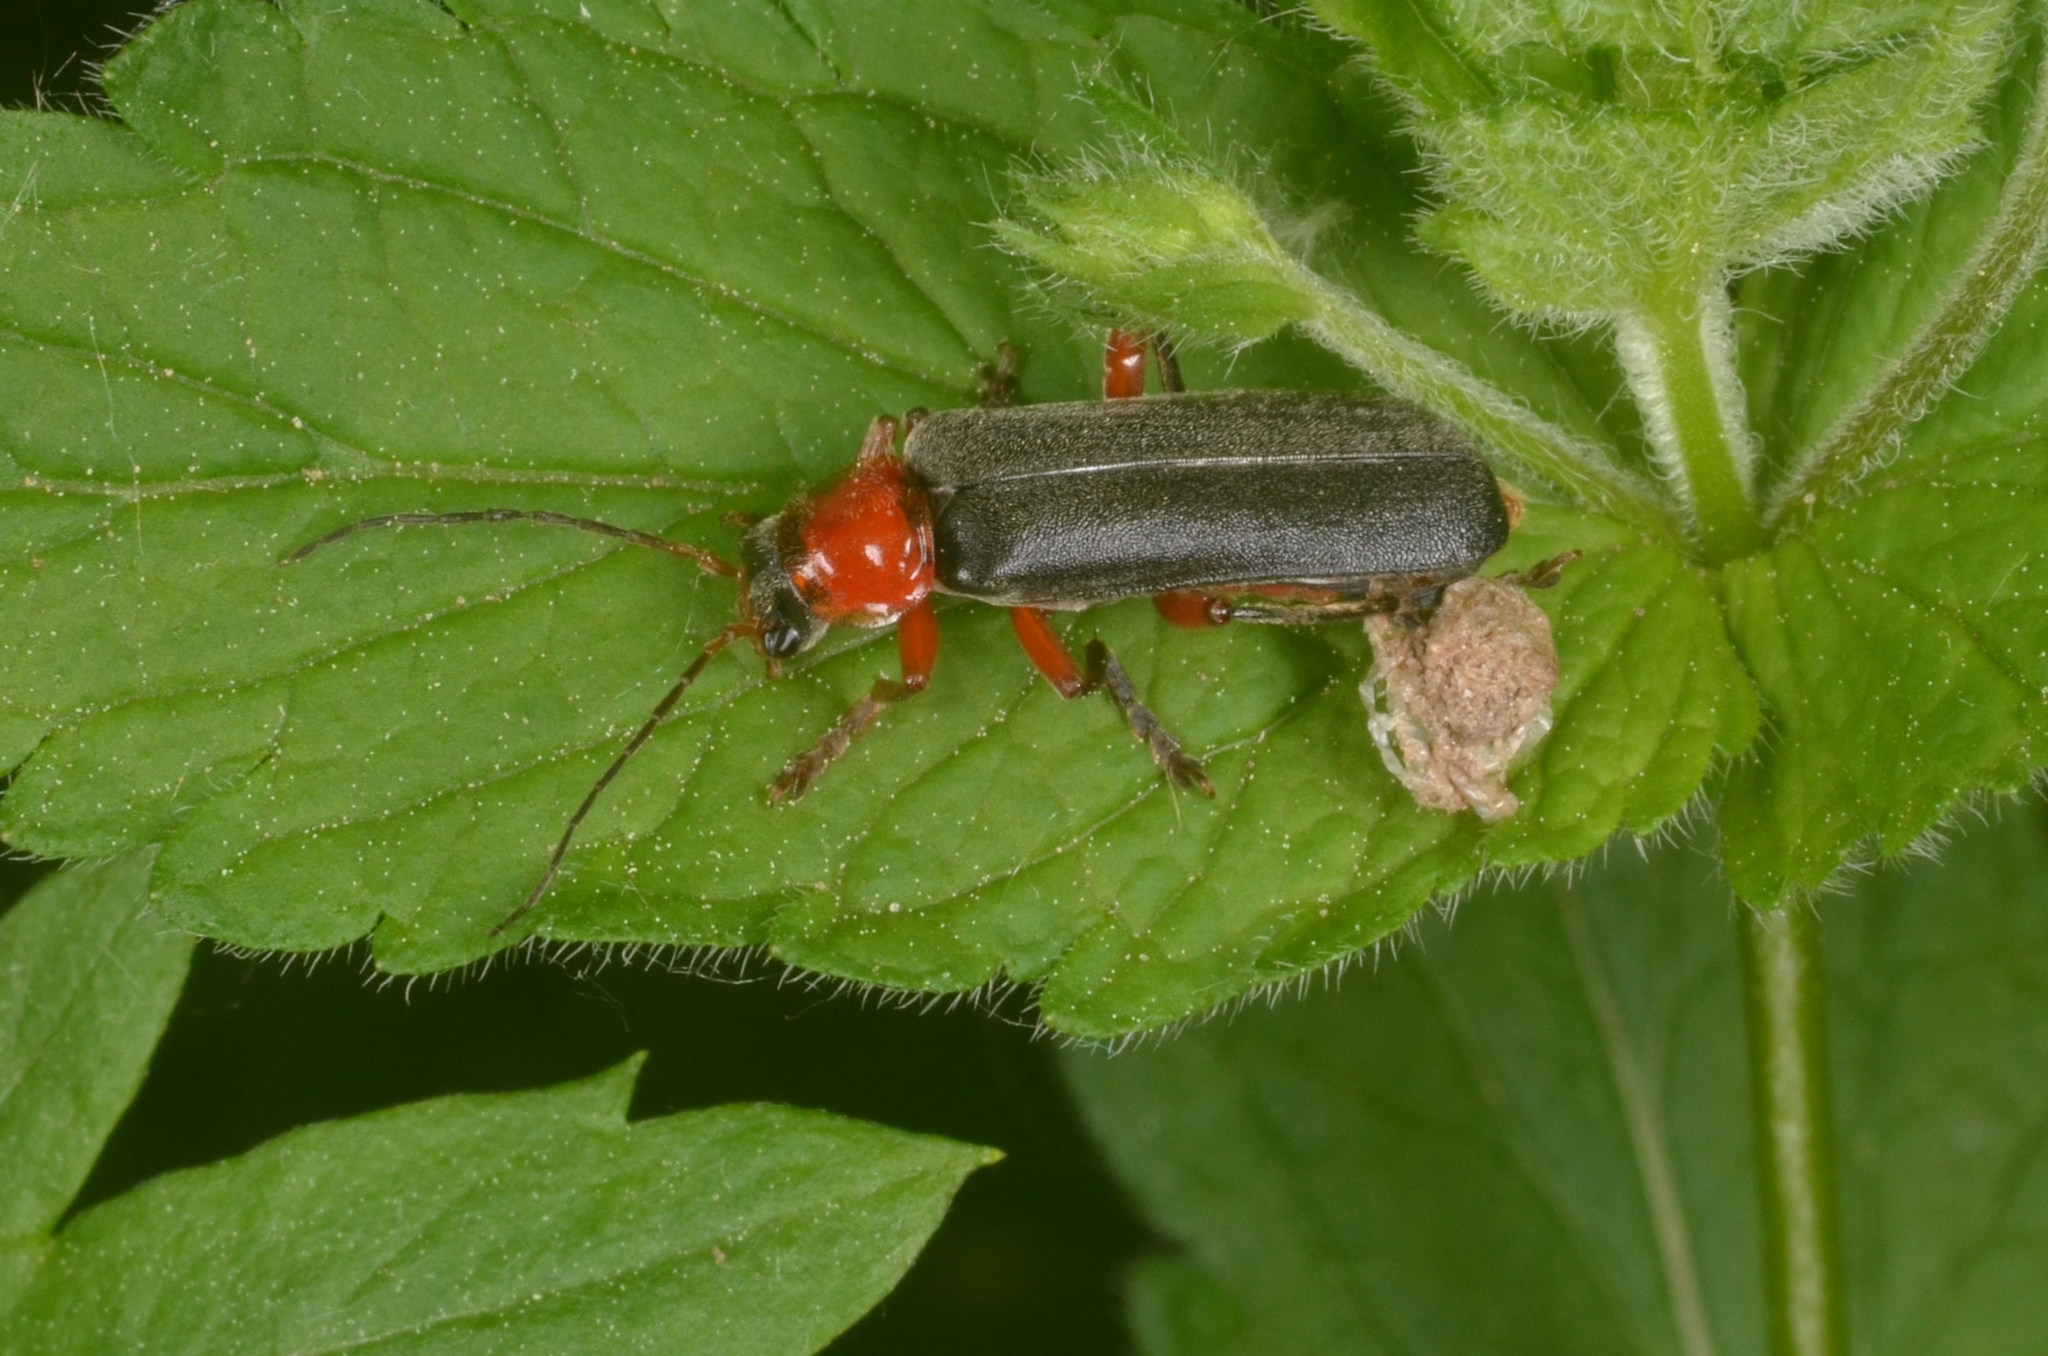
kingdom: Animalia
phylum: Arthropoda
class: Insecta
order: Coleoptera
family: Cantharidae
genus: Cantharis
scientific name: Cantharis pellucida
